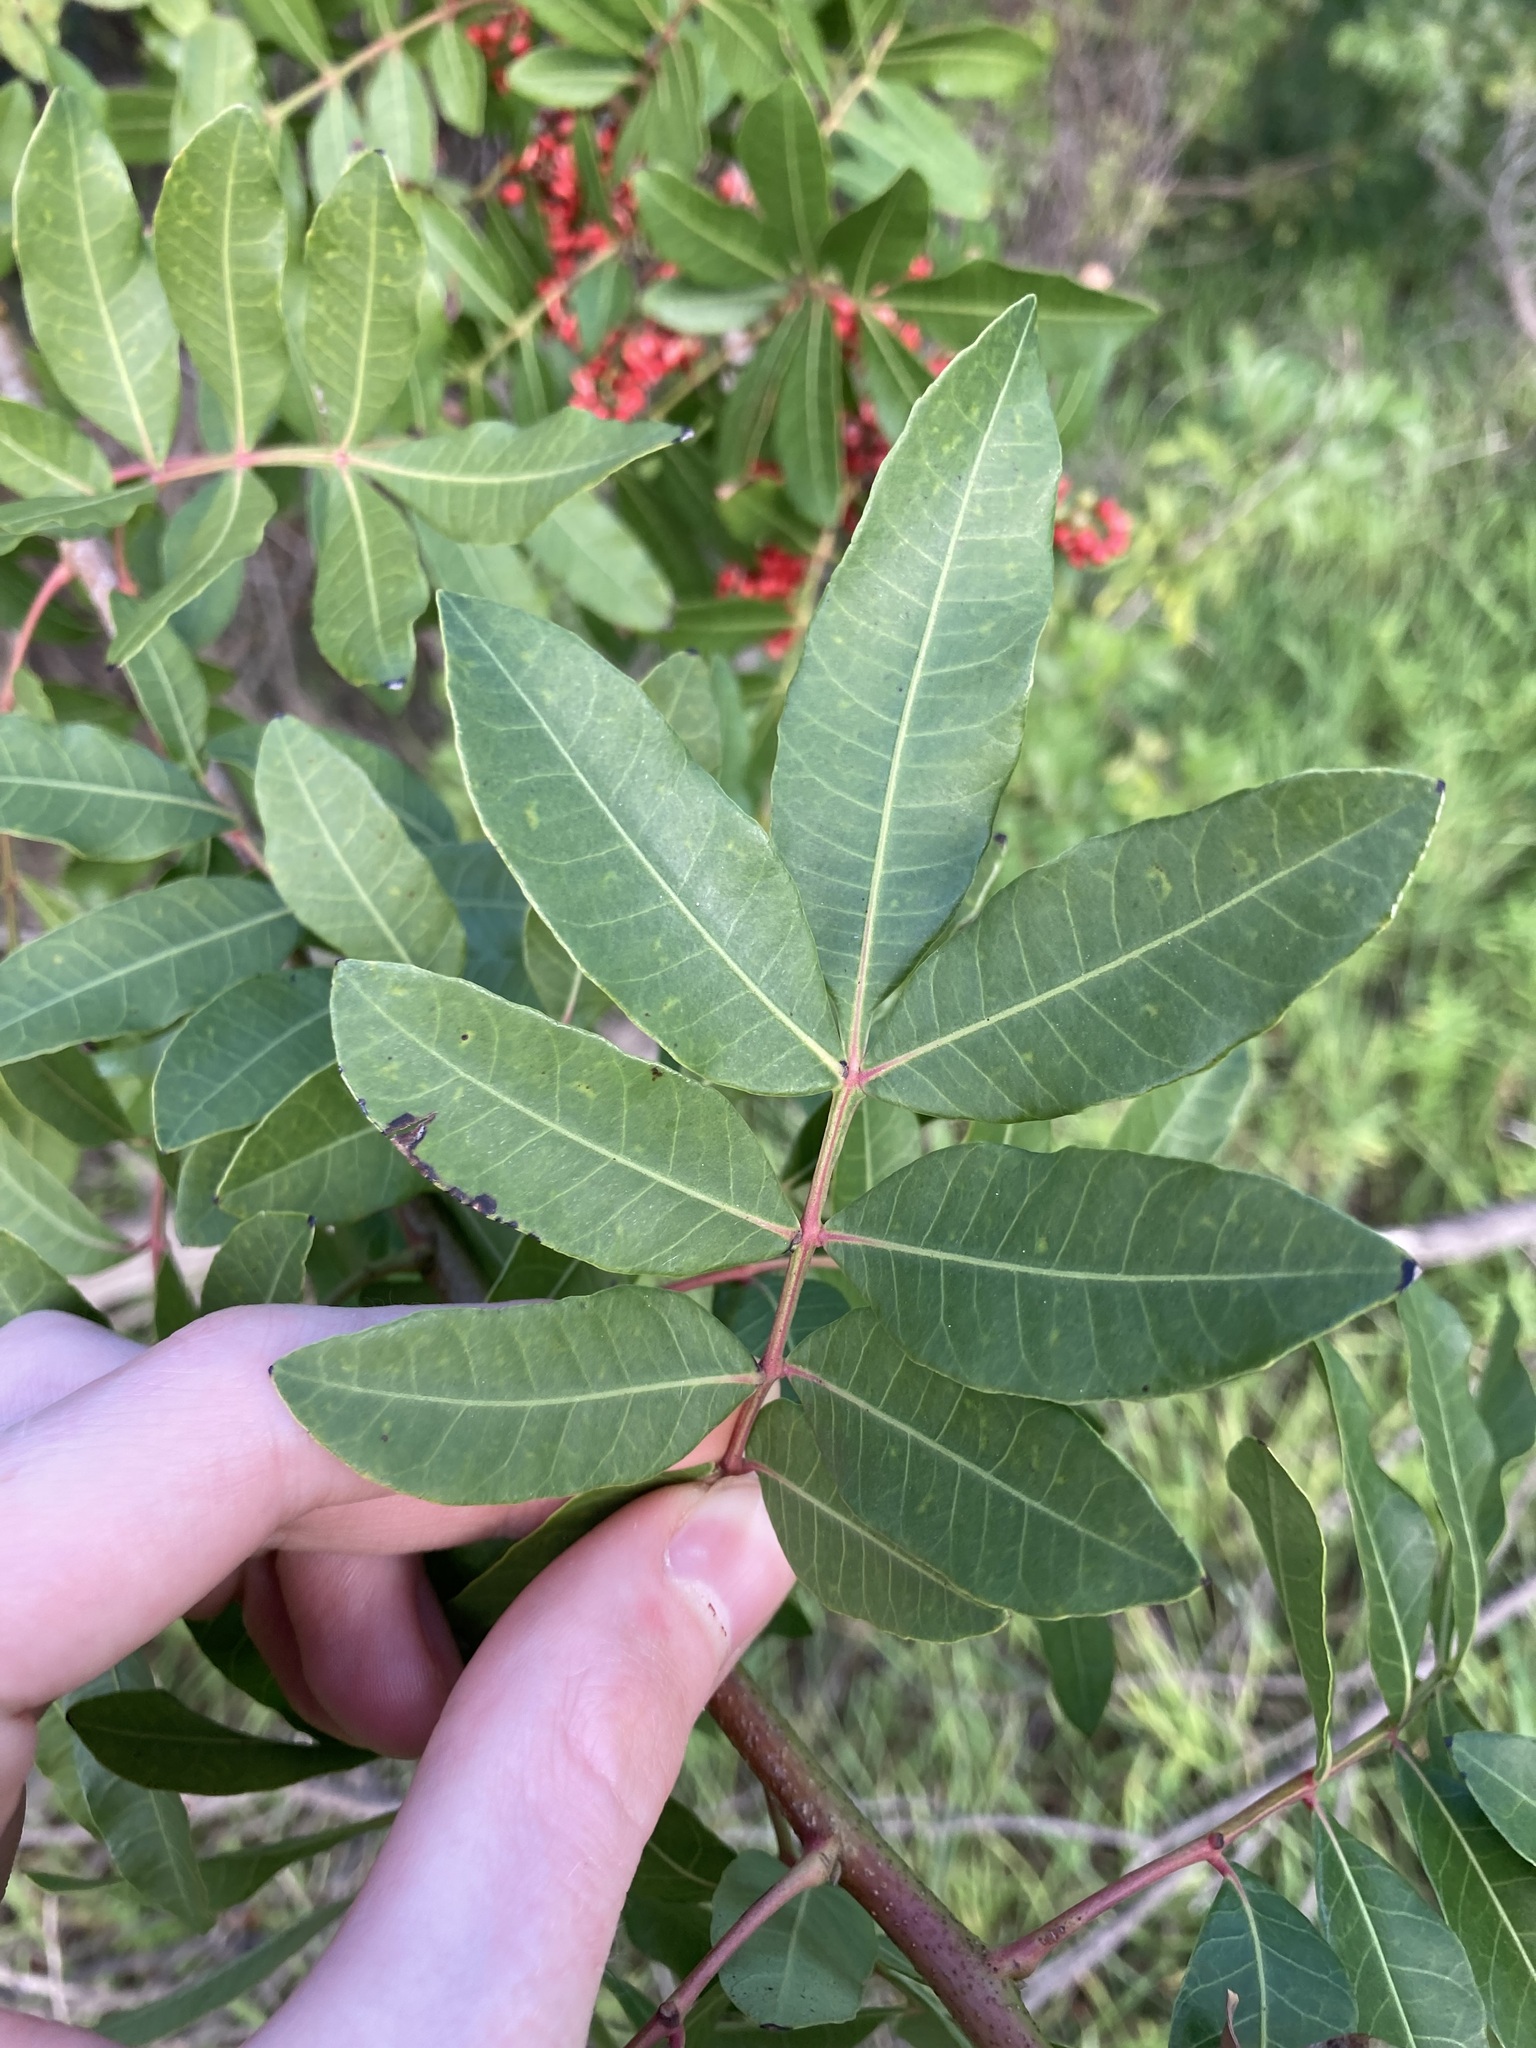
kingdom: Plantae
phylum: Tracheophyta
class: Magnoliopsida
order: Sapindales
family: Anacardiaceae
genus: Schinus
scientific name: Schinus terebinthifolia
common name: Brazilian peppertree
